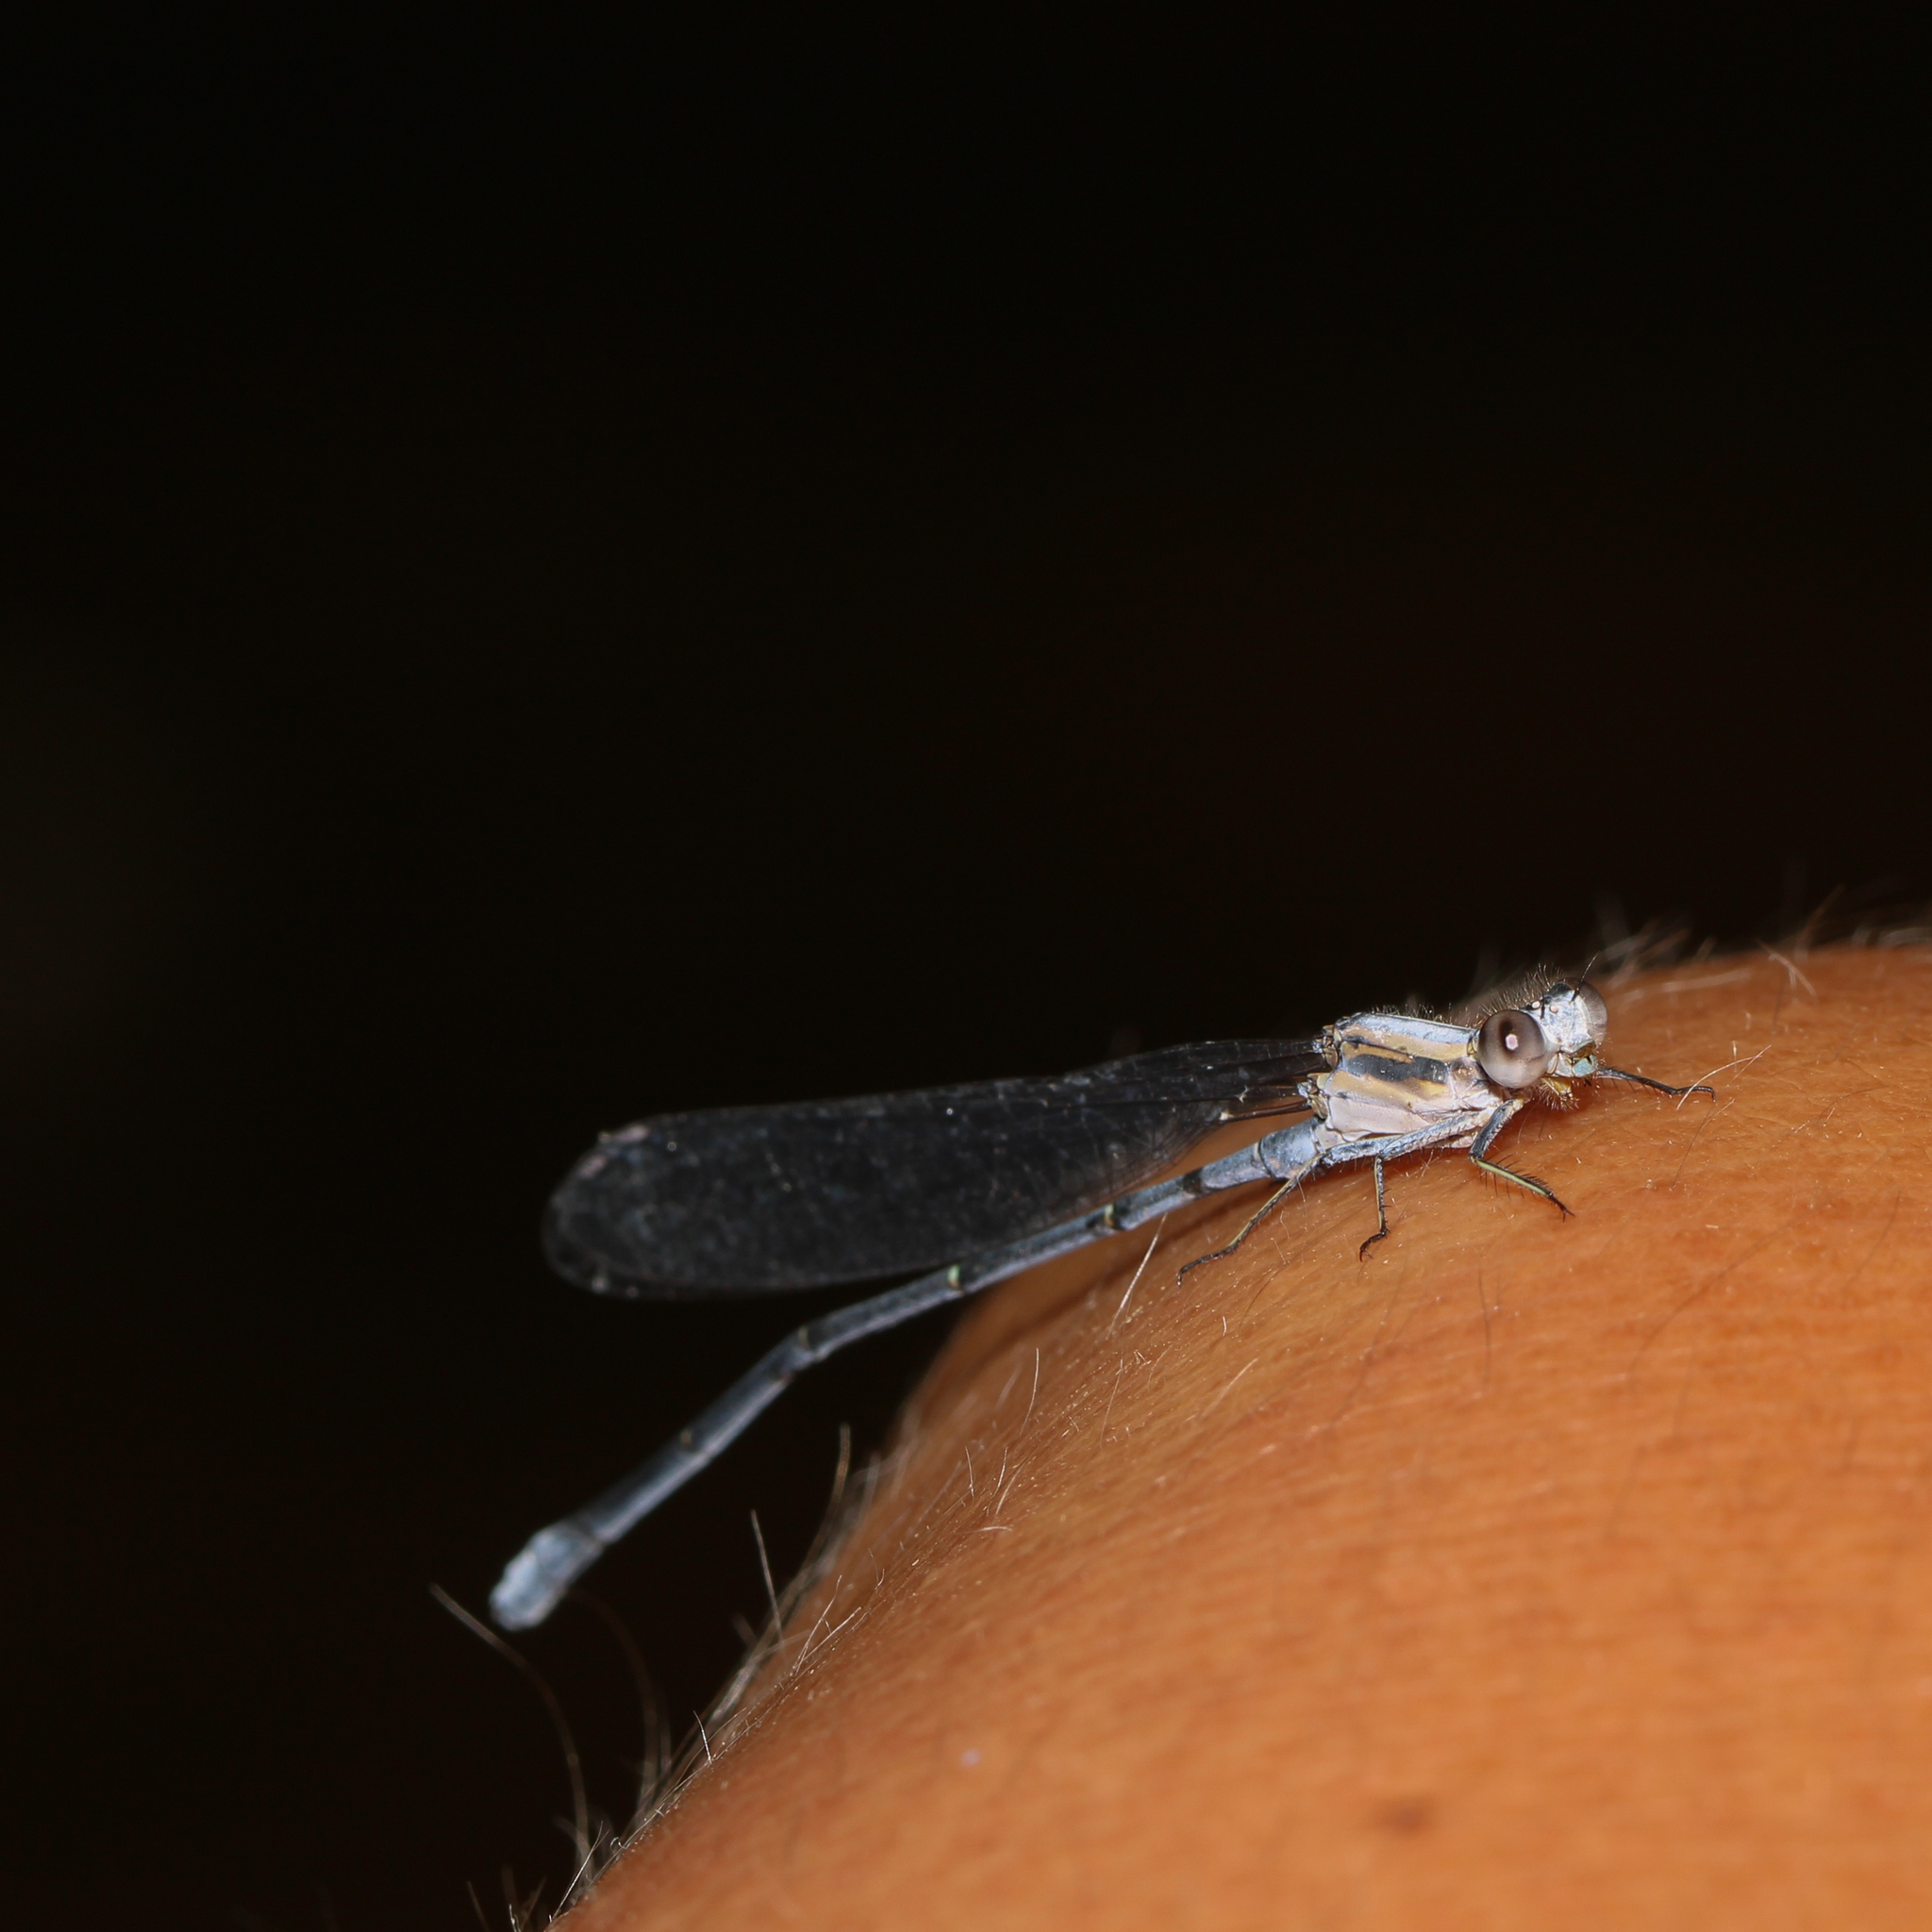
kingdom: Animalia
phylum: Arthropoda
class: Insecta
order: Odonata
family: Coenagrionidae
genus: Argia
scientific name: Argia moesta
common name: Powdered dancer
